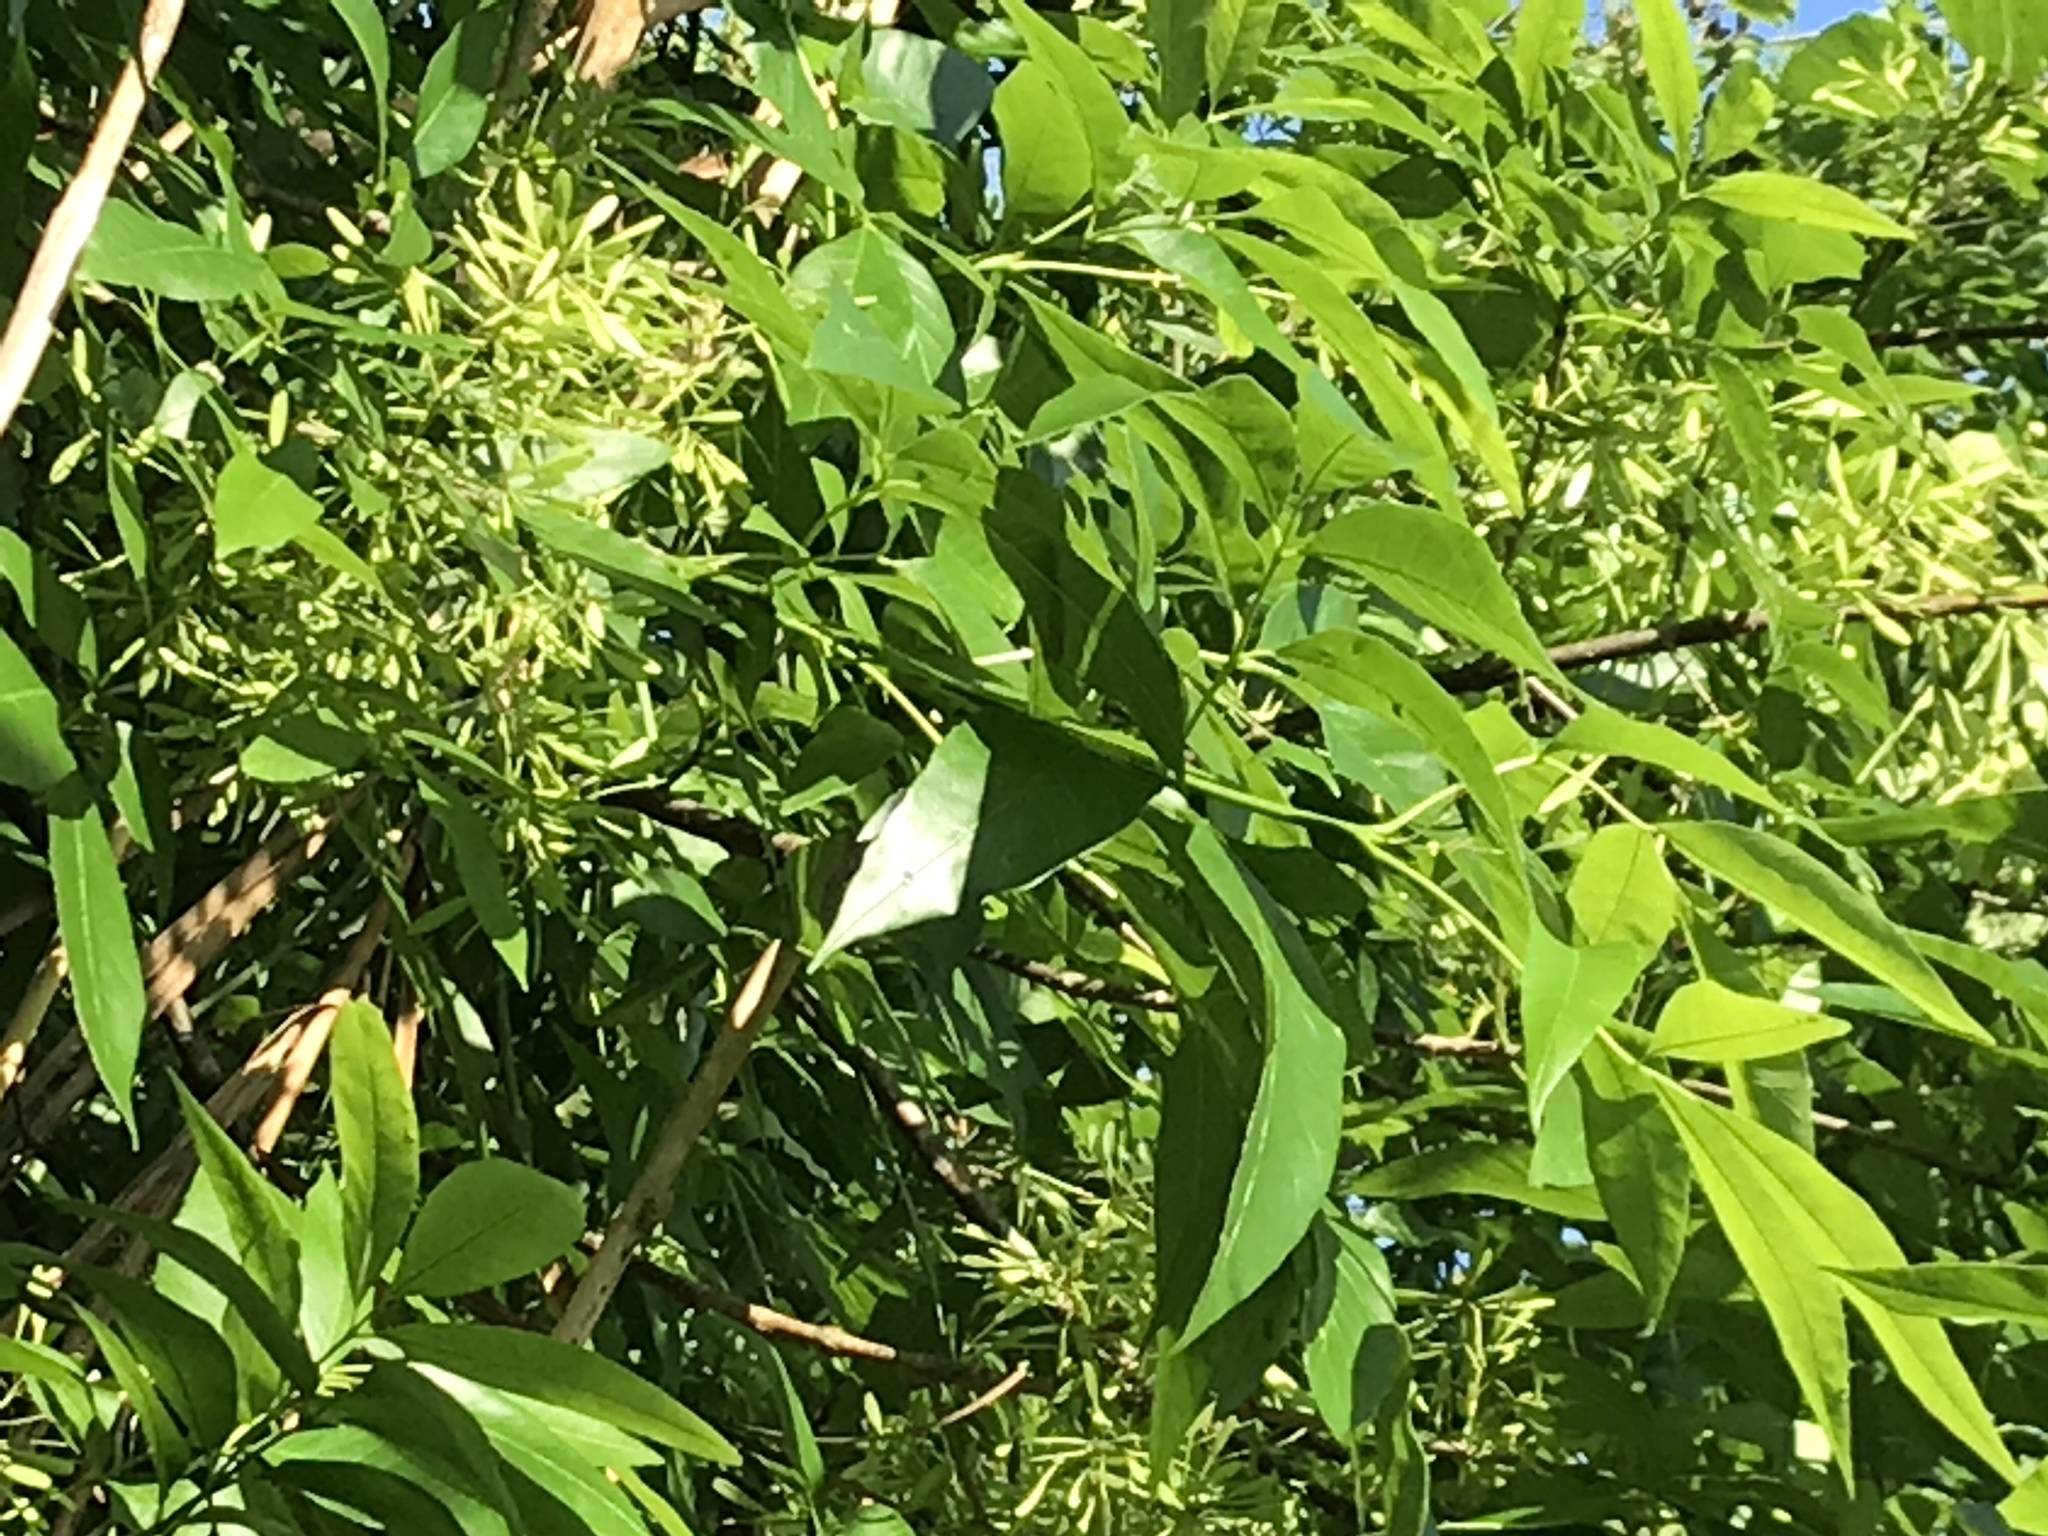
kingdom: Plantae
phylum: Tracheophyta
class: Magnoliopsida
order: Lamiales
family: Oleaceae
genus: Fraxinus
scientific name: Fraxinus pennsylvanica
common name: Green ash
